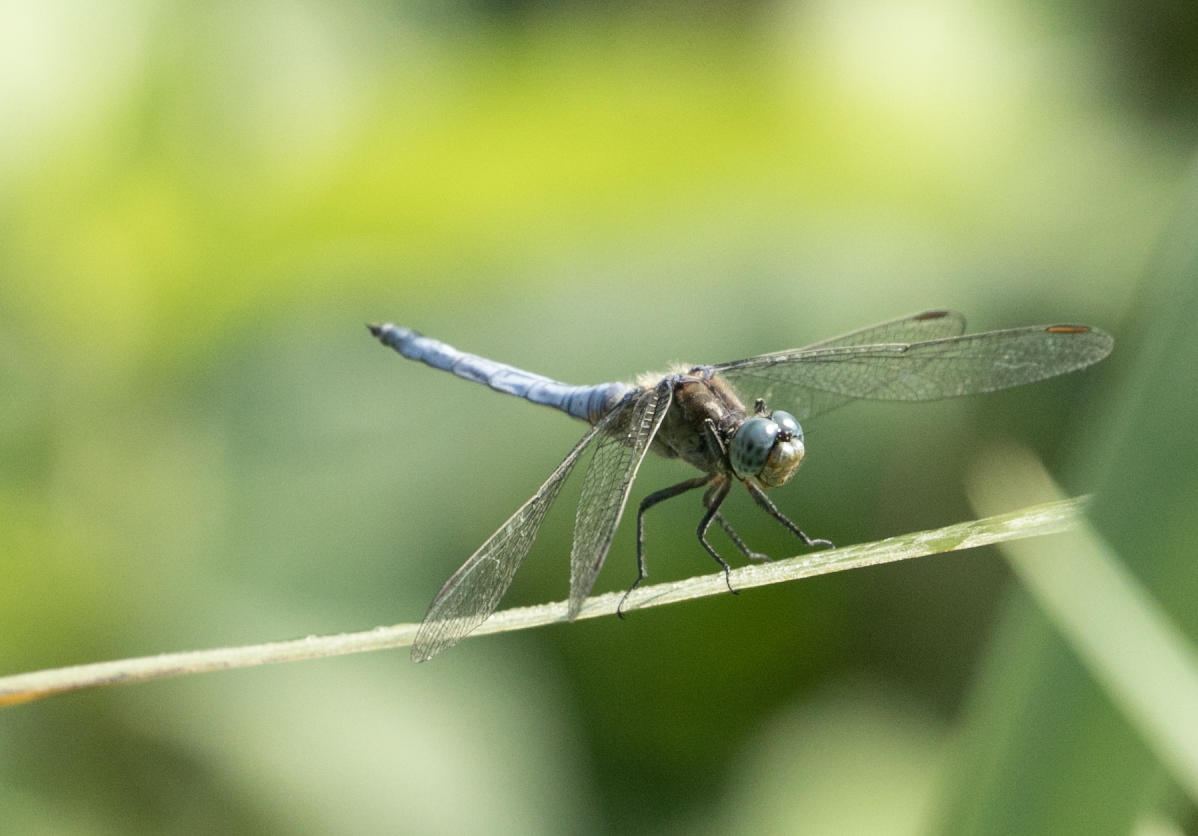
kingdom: Animalia
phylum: Arthropoda
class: Insecta
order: Odonata
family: Libellulidae
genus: Orthetrum
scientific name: Orthetrum coerulescens
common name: Keeled skimmer
